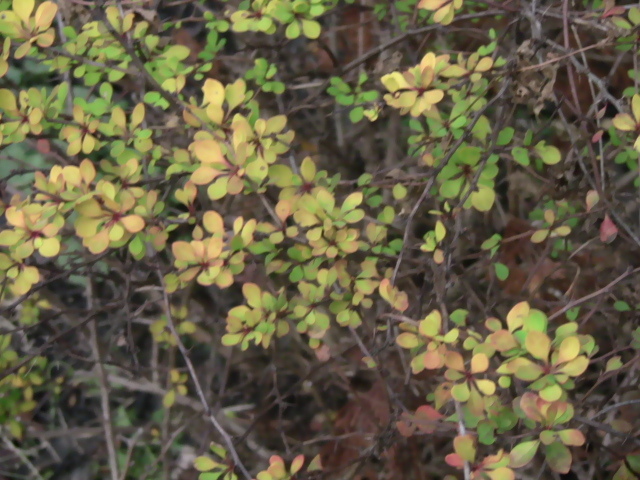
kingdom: Plantae
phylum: Tracheophyta
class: Magnoliopsida
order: Ranunculales
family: Berberidaceae
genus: Berberis
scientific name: Berberis thunbergii
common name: Japanese barberry
